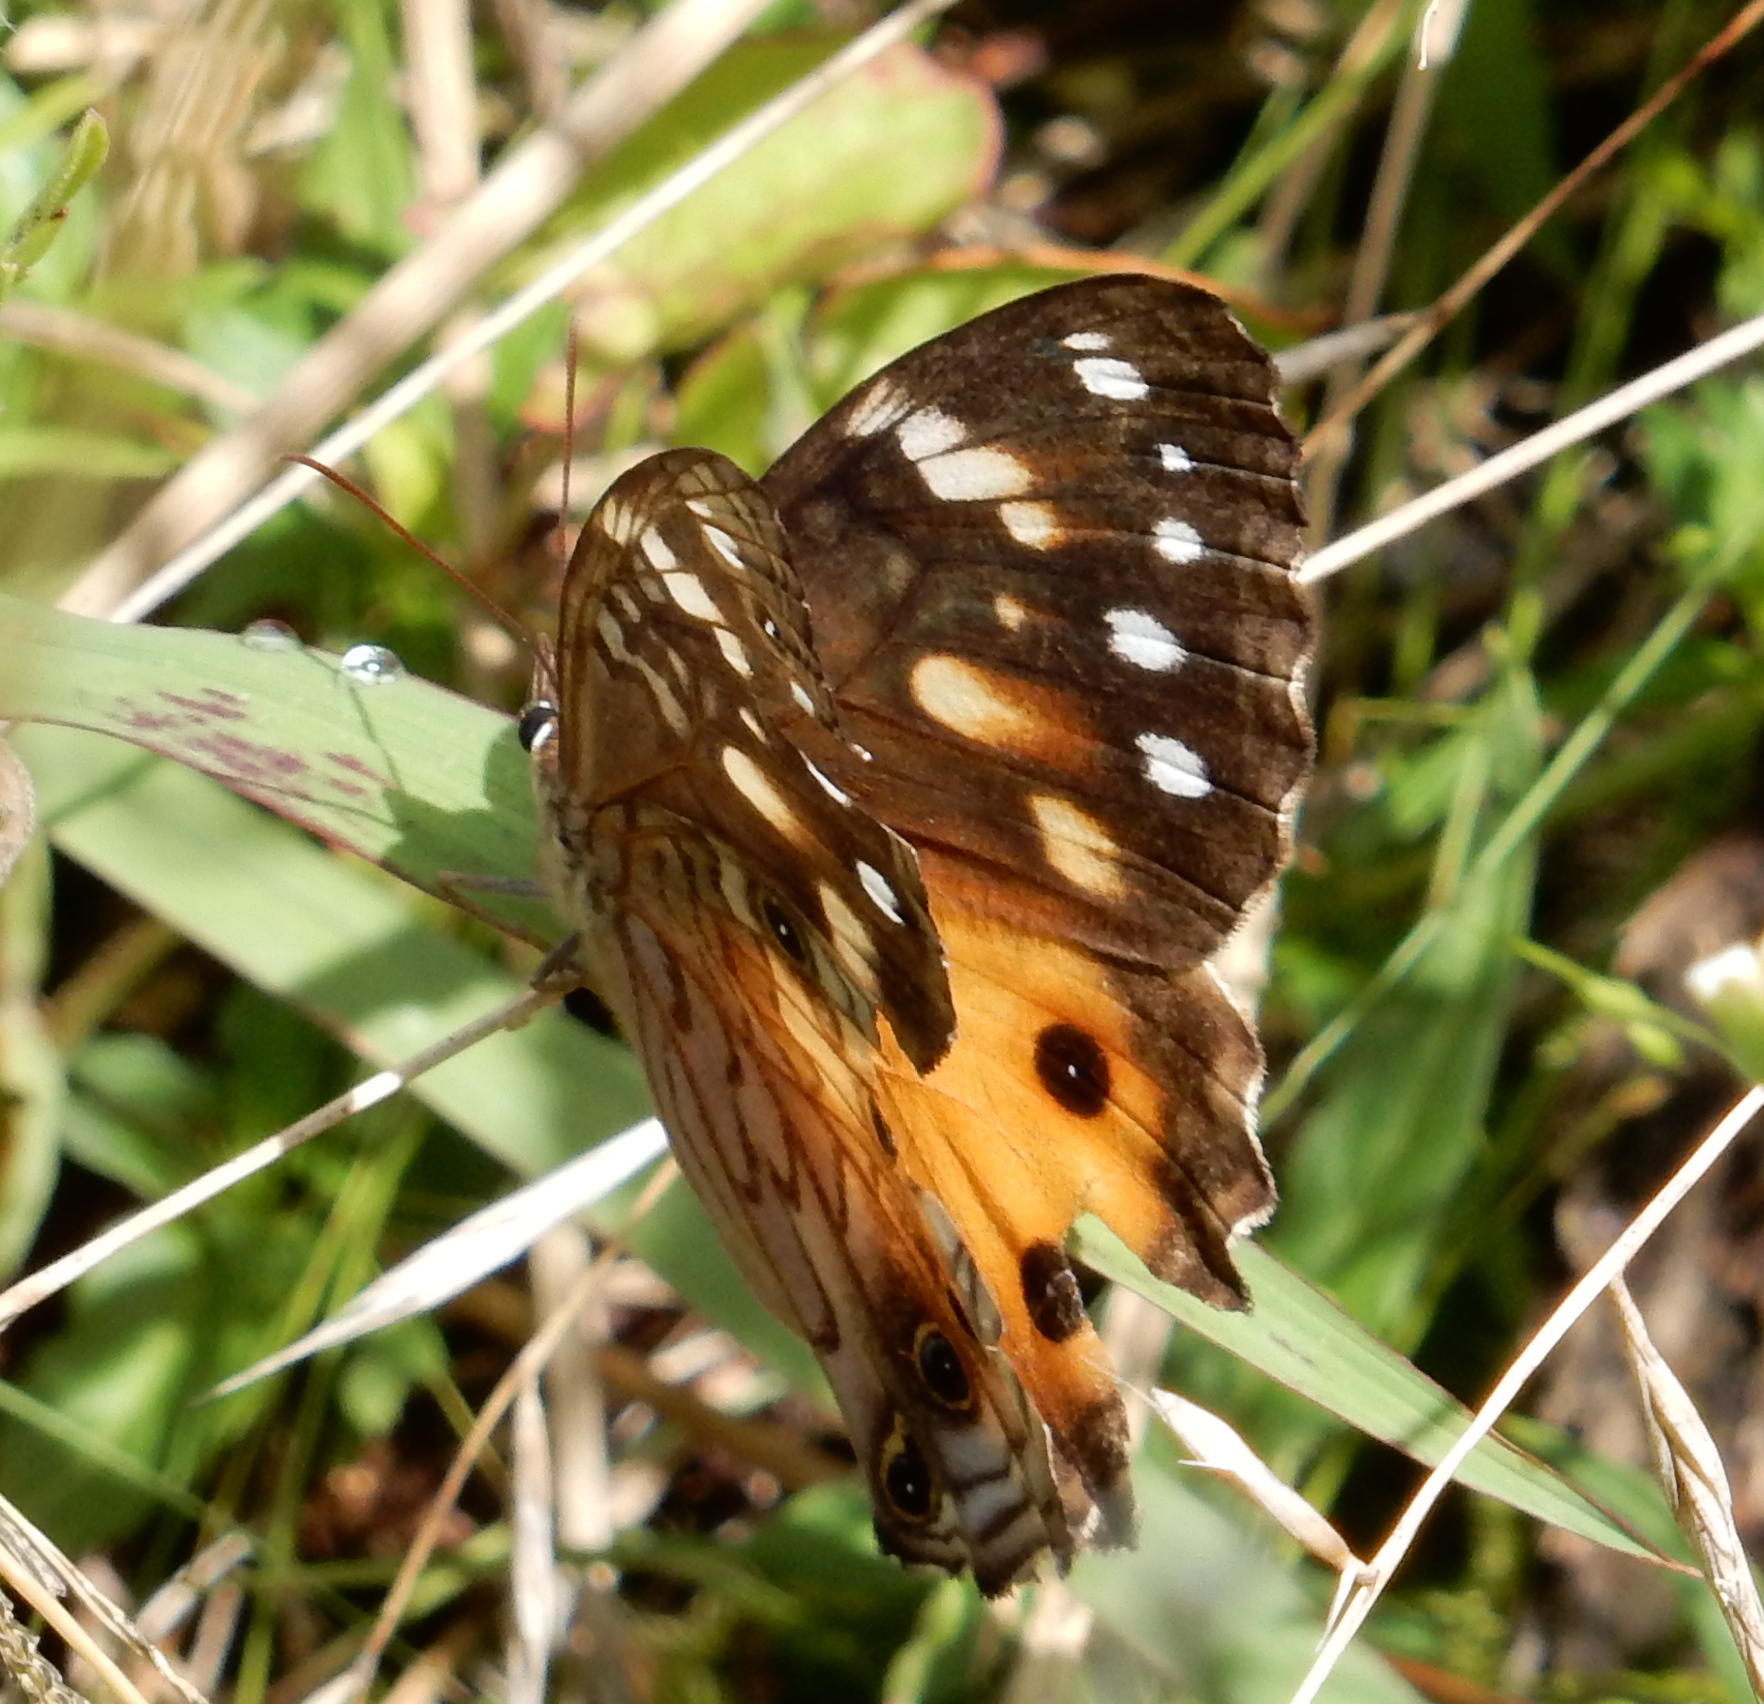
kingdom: Animalia
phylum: Arthropoda
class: Insecta
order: Lepidoptera
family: Nymphalidae
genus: Paralethe
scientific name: Paralethe dendrophilus
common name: Bush beauty
